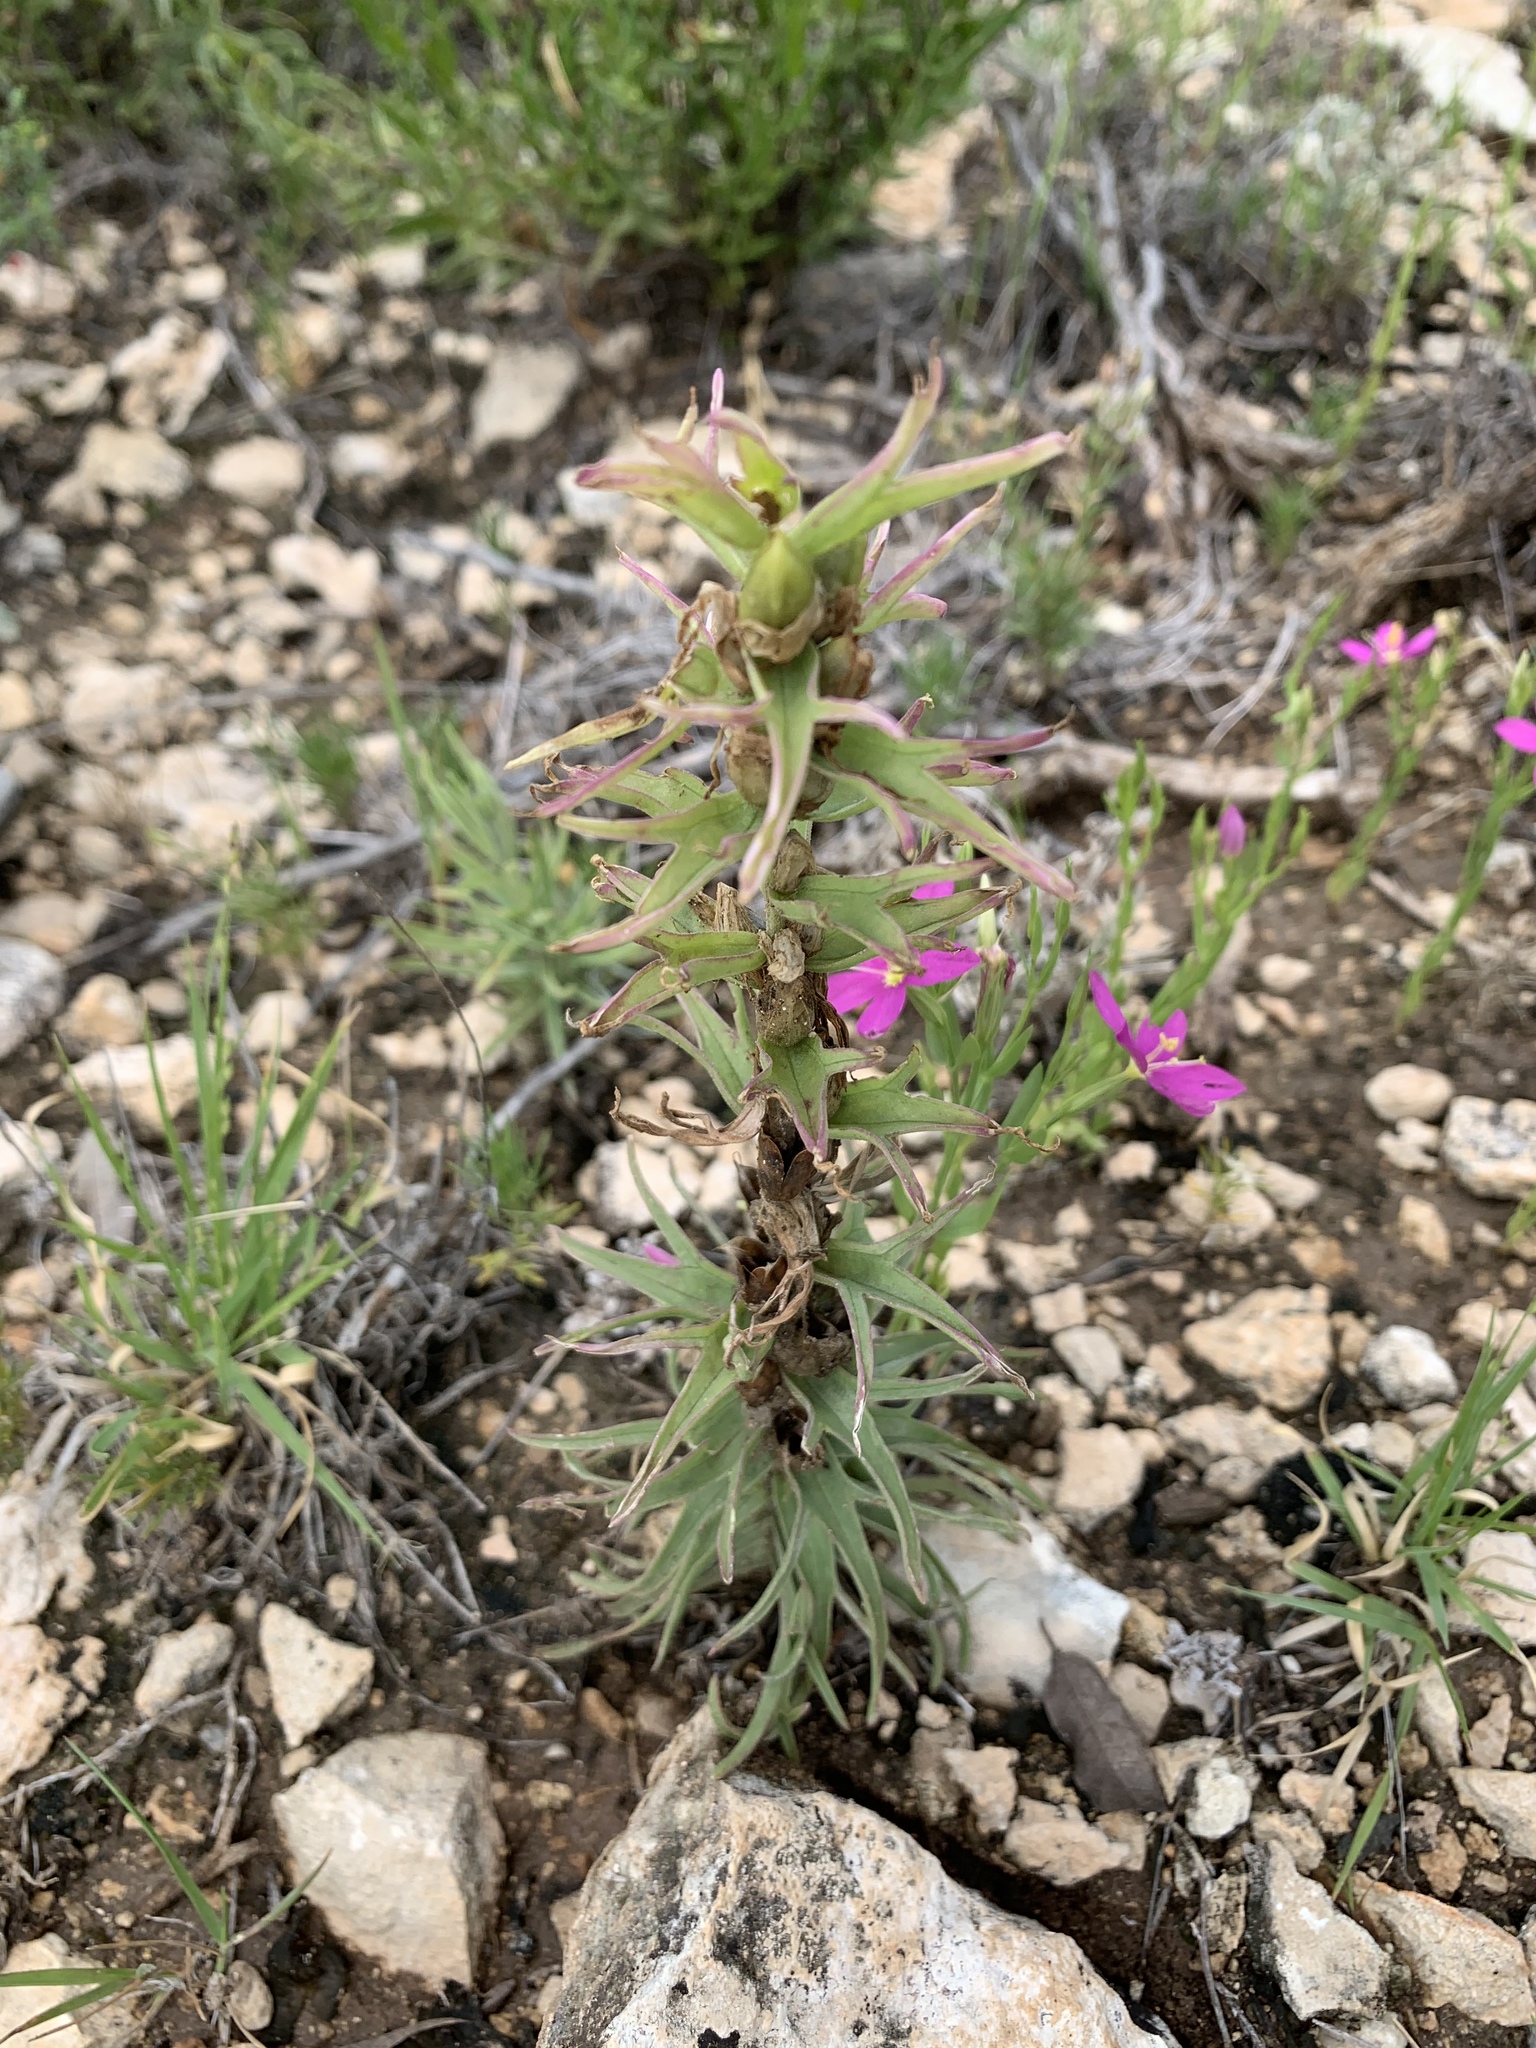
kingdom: Plantae
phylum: Tracheophyta
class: Magnoliopsida
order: Lamiales
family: Orobanchaceae
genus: Castilleja
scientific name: Castilleja sessiliflora
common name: Downy paintbrush
